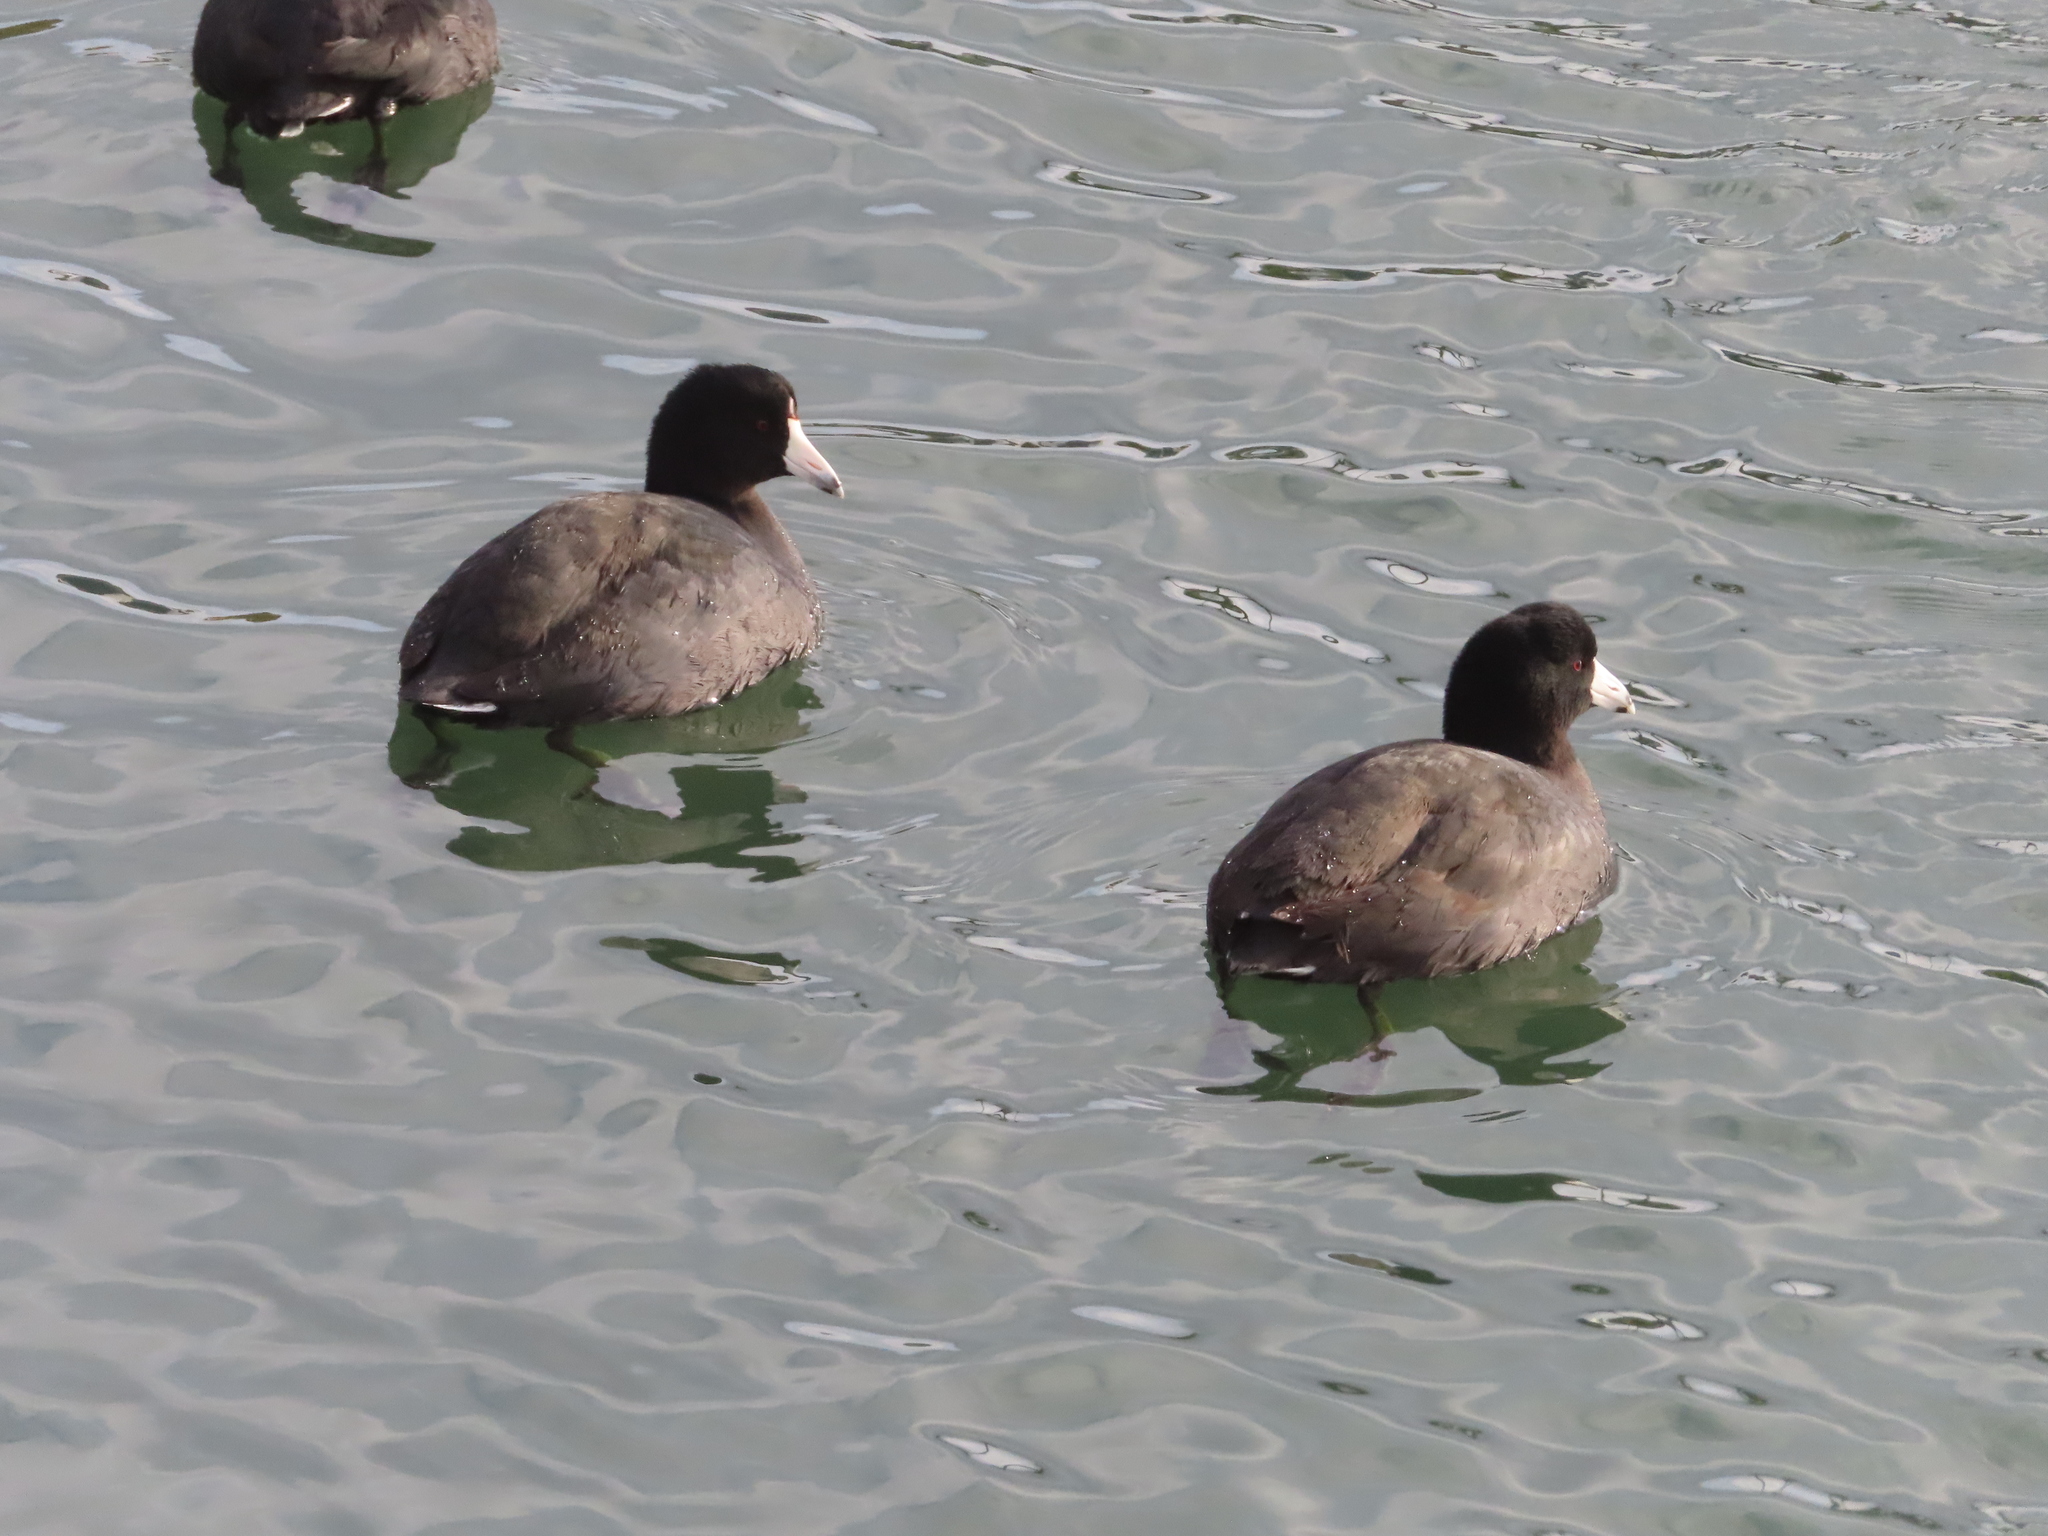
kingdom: Animalia
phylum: Chordata
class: Aves
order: Gruiformes
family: Rallidae
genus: Fulica
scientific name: Fulica americana
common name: American coot
